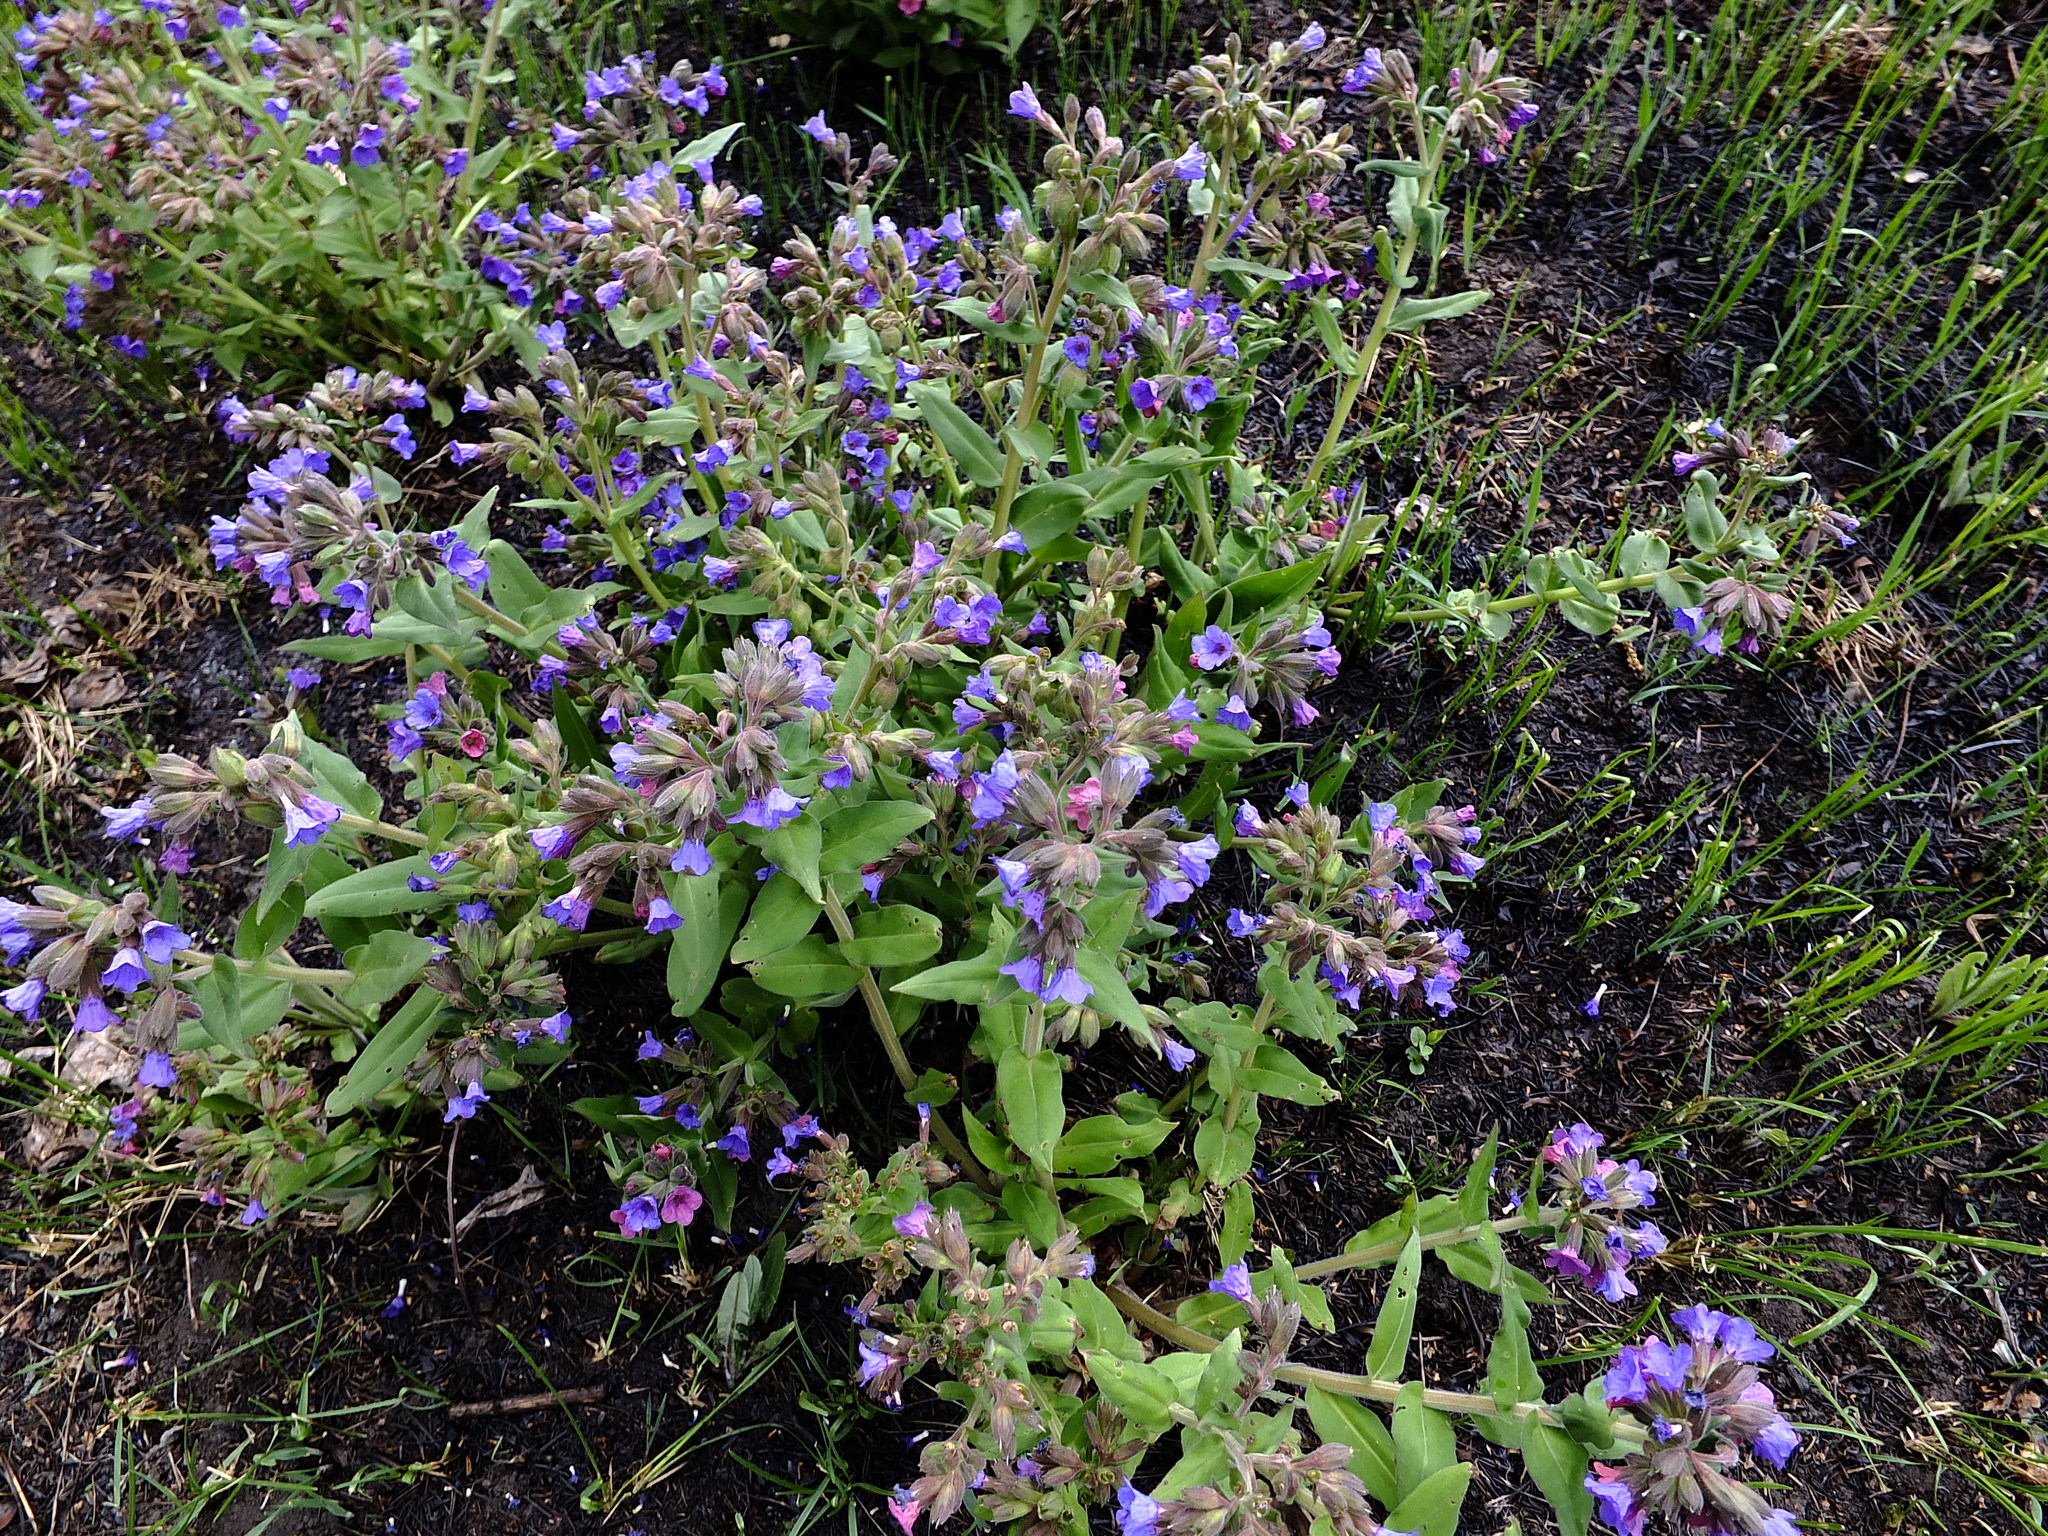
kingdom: Plantae
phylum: Tracheophyta
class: Magnoliopsida
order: Boraginales
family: Boraginaceae
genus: Pulmonaria
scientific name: Pulmonaria mollis
